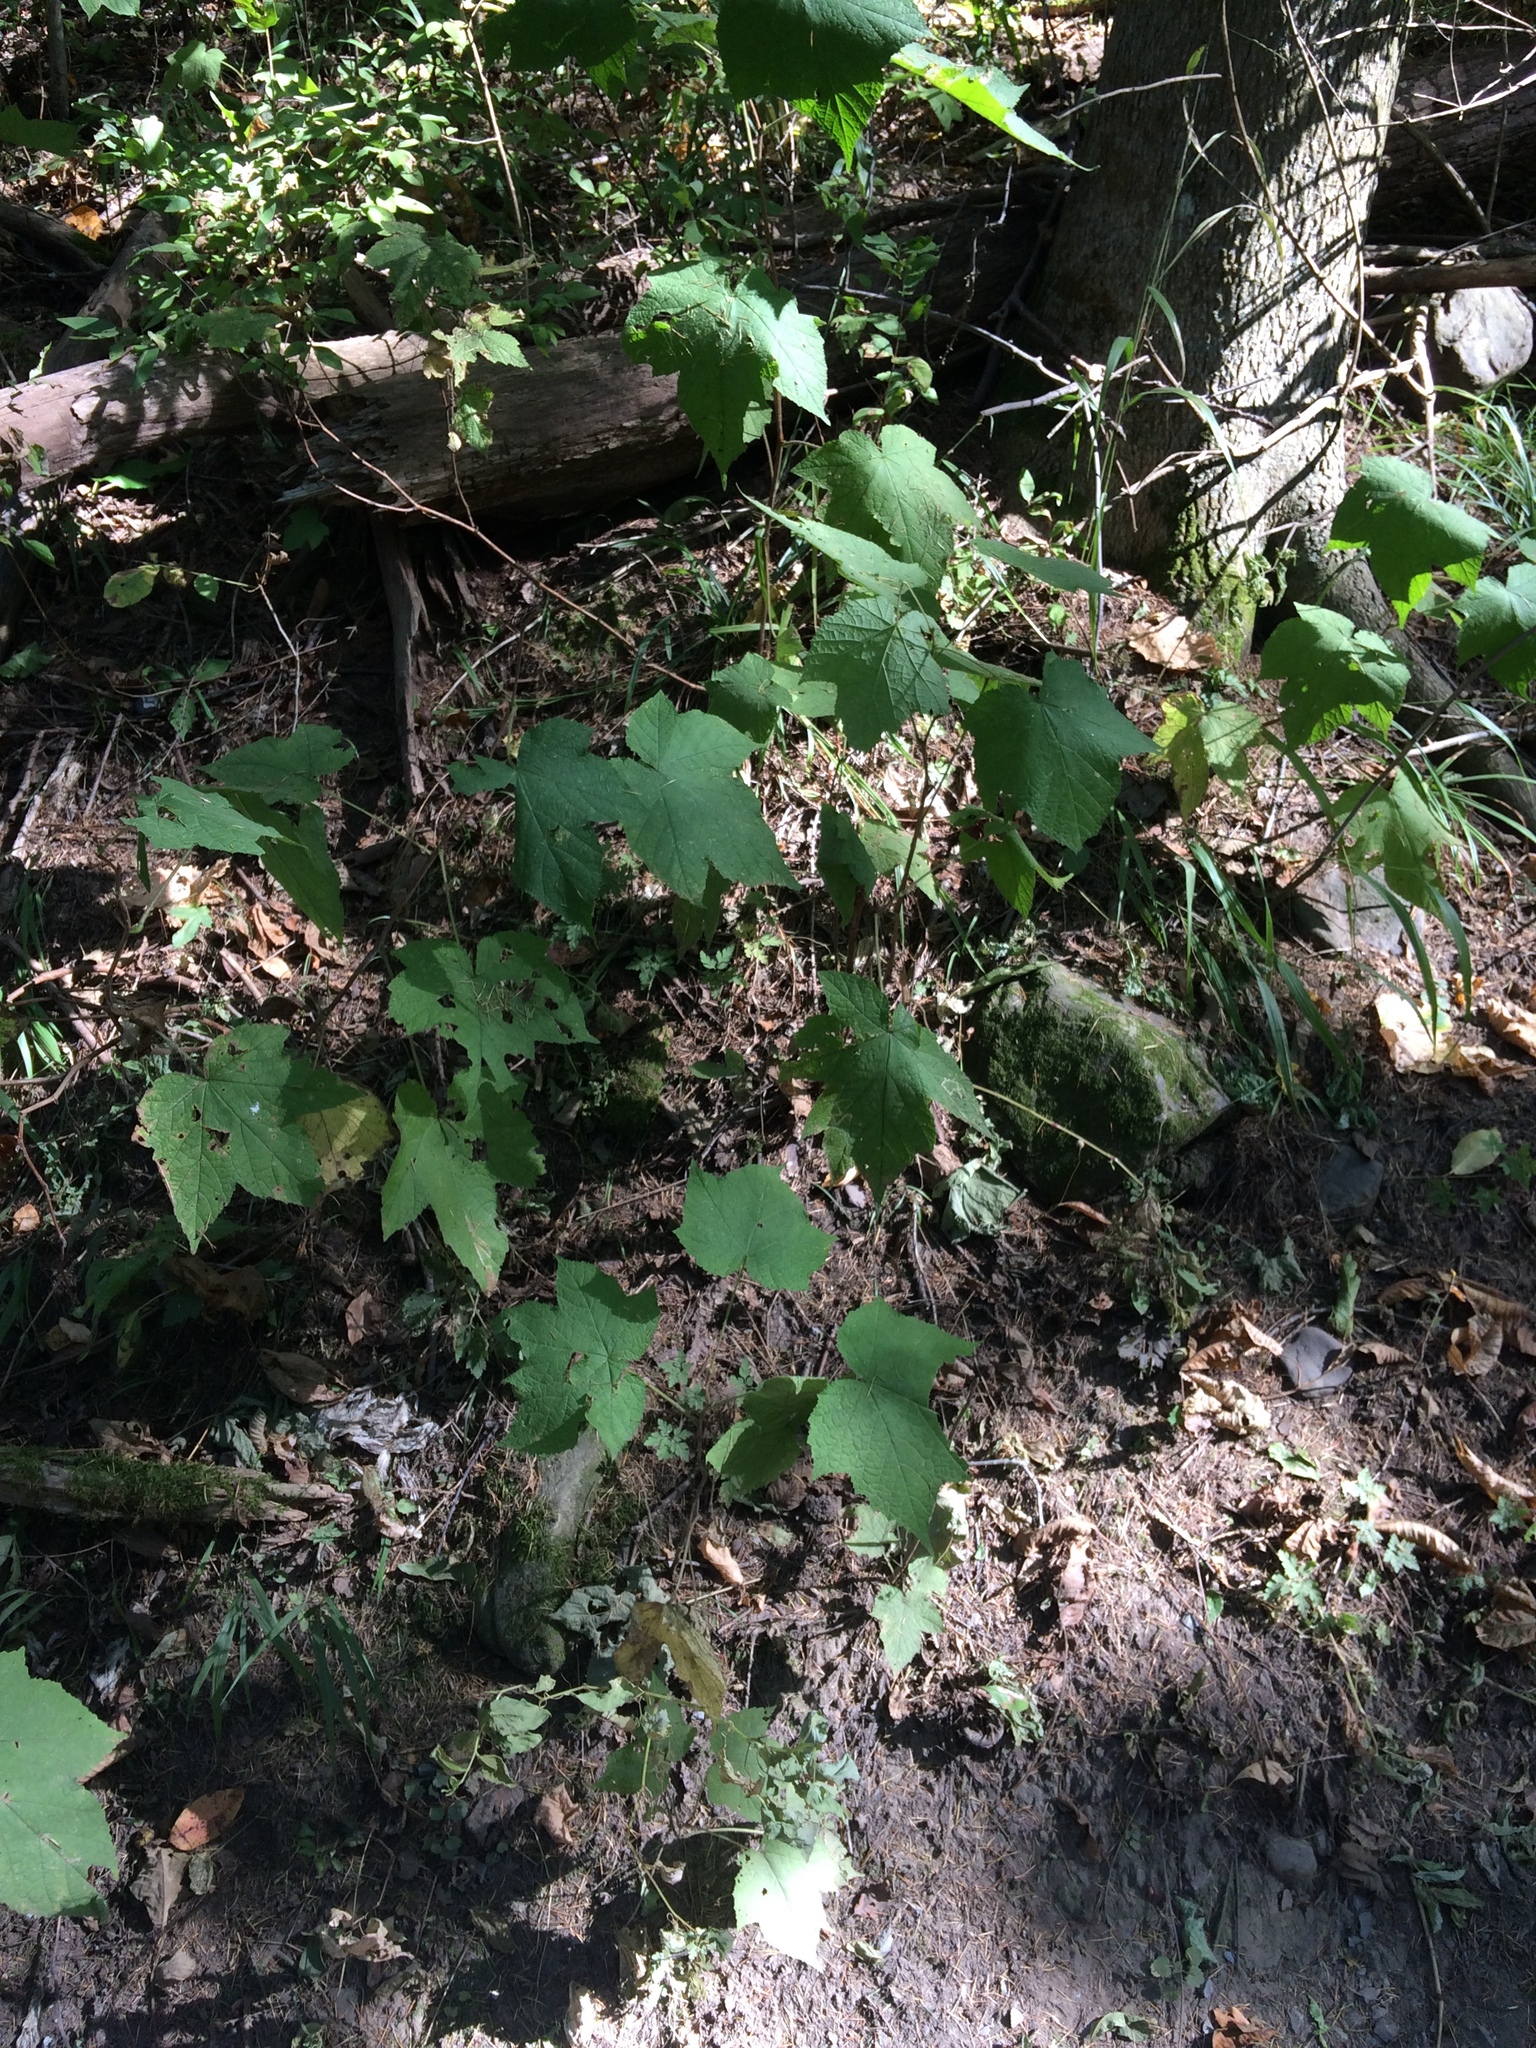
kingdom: Plantae
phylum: Tracheophyta
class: Magnoliopsida
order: Rosales
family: Rosaceae
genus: Rubus
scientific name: Rubus odoratus
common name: Purple-flowered raspberry
